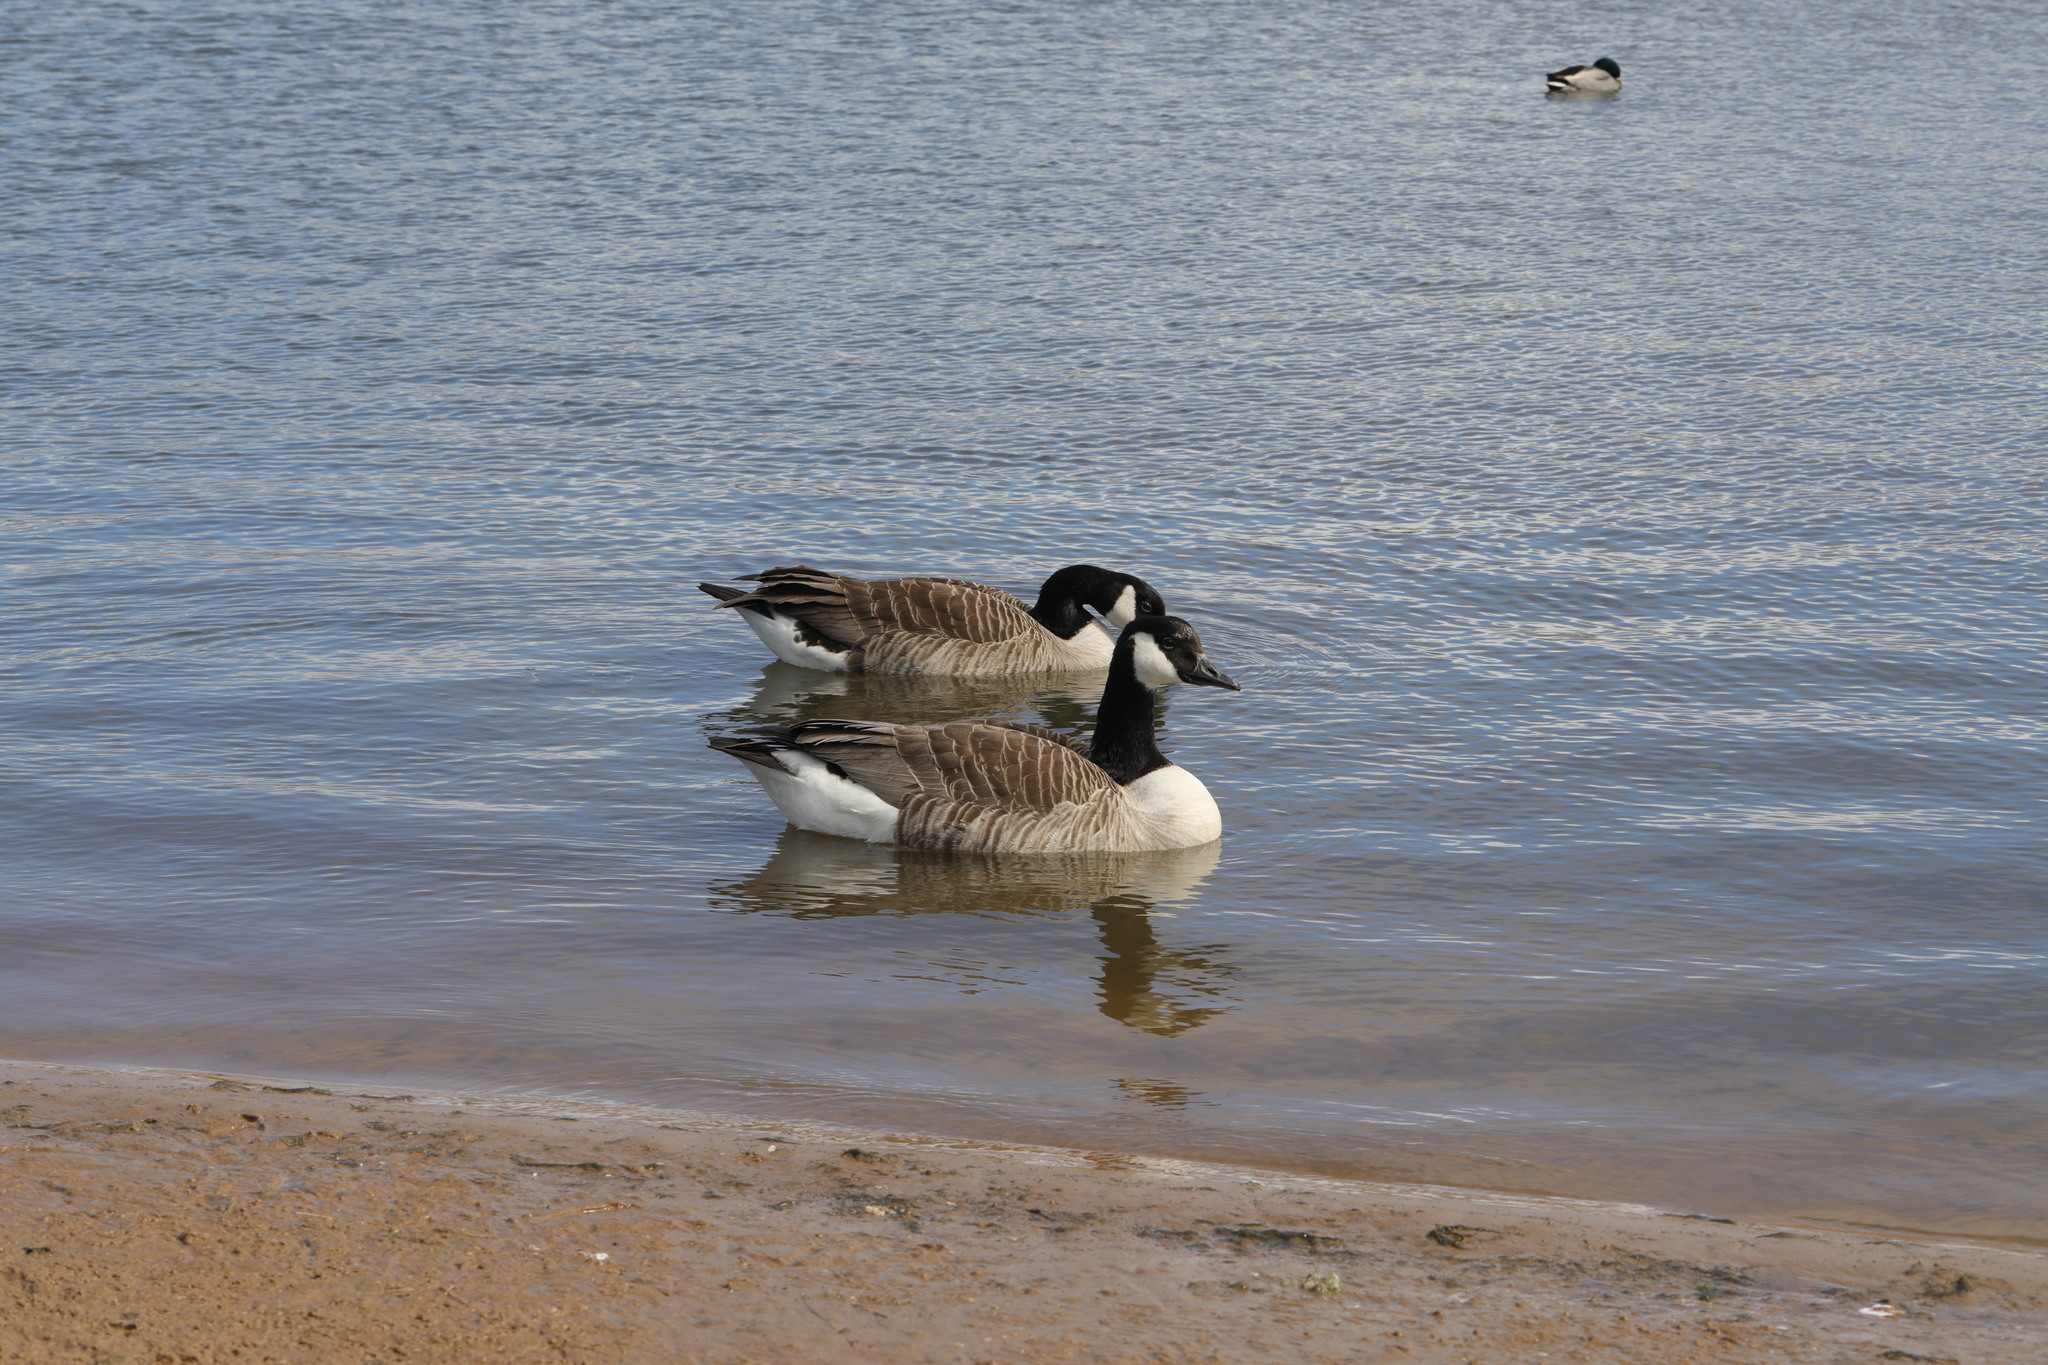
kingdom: Animalia
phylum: Chordata
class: Aves
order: Anseriformes
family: Anatidae
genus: Branta
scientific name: Branta canadensis
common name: Canada goose
